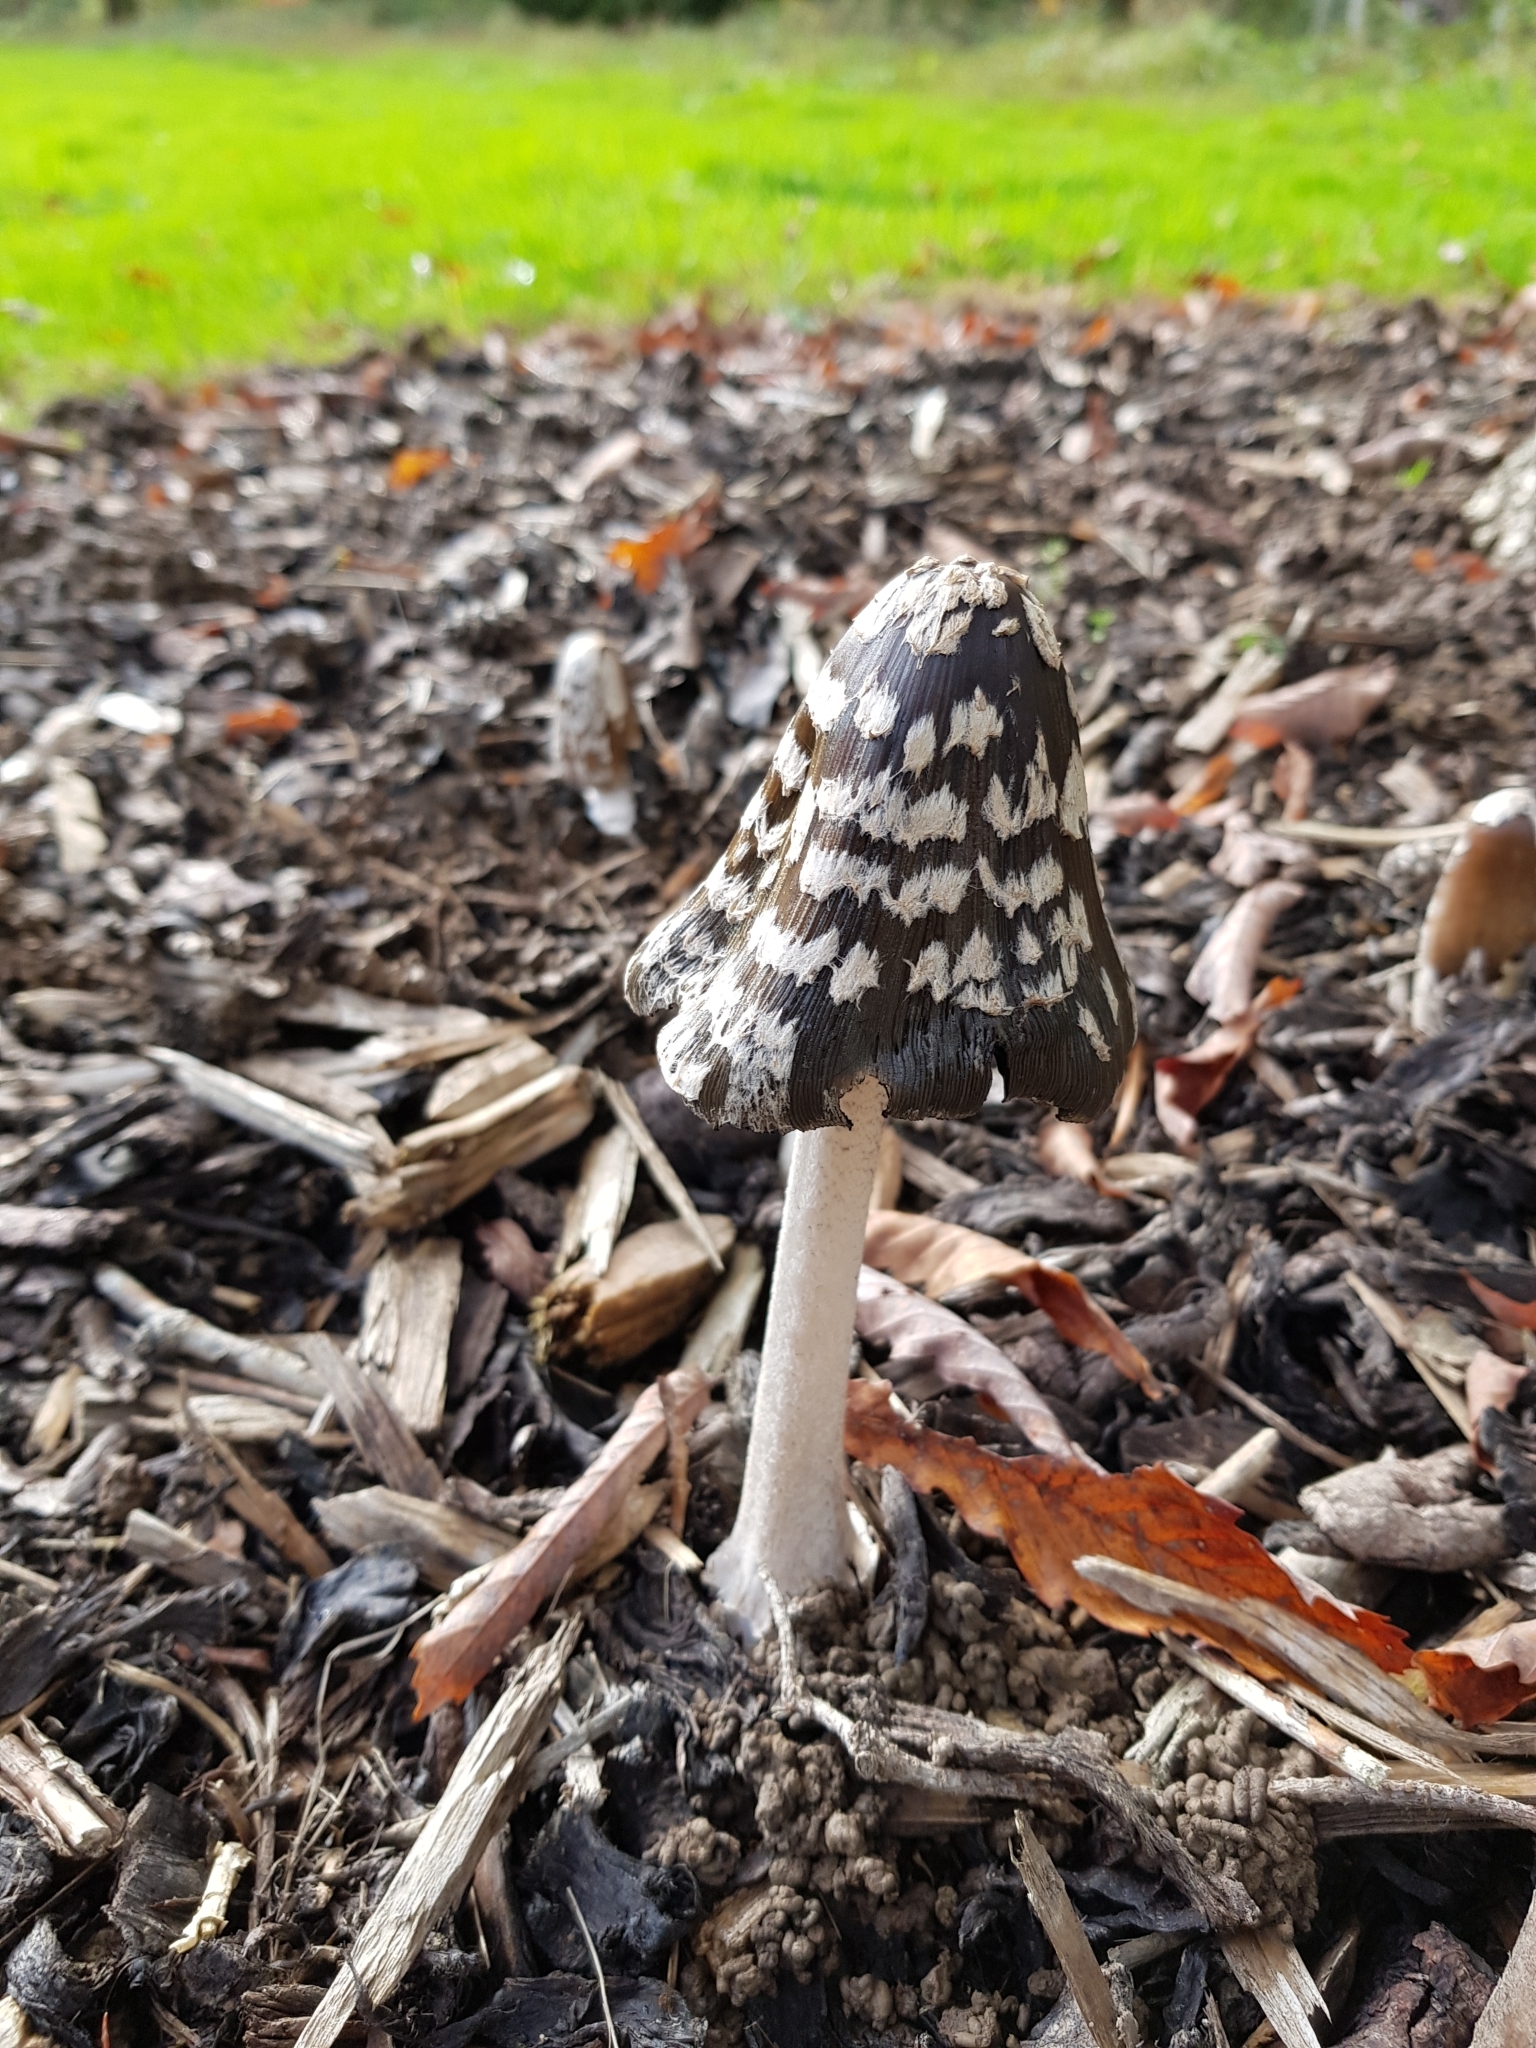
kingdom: Fungi
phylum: Basidiomycota
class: Agaricomycetes
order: Agaricales
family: Psathyrellaceae
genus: Coprinopsis
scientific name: Coprinopsis picacea
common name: Magpie inkcap
